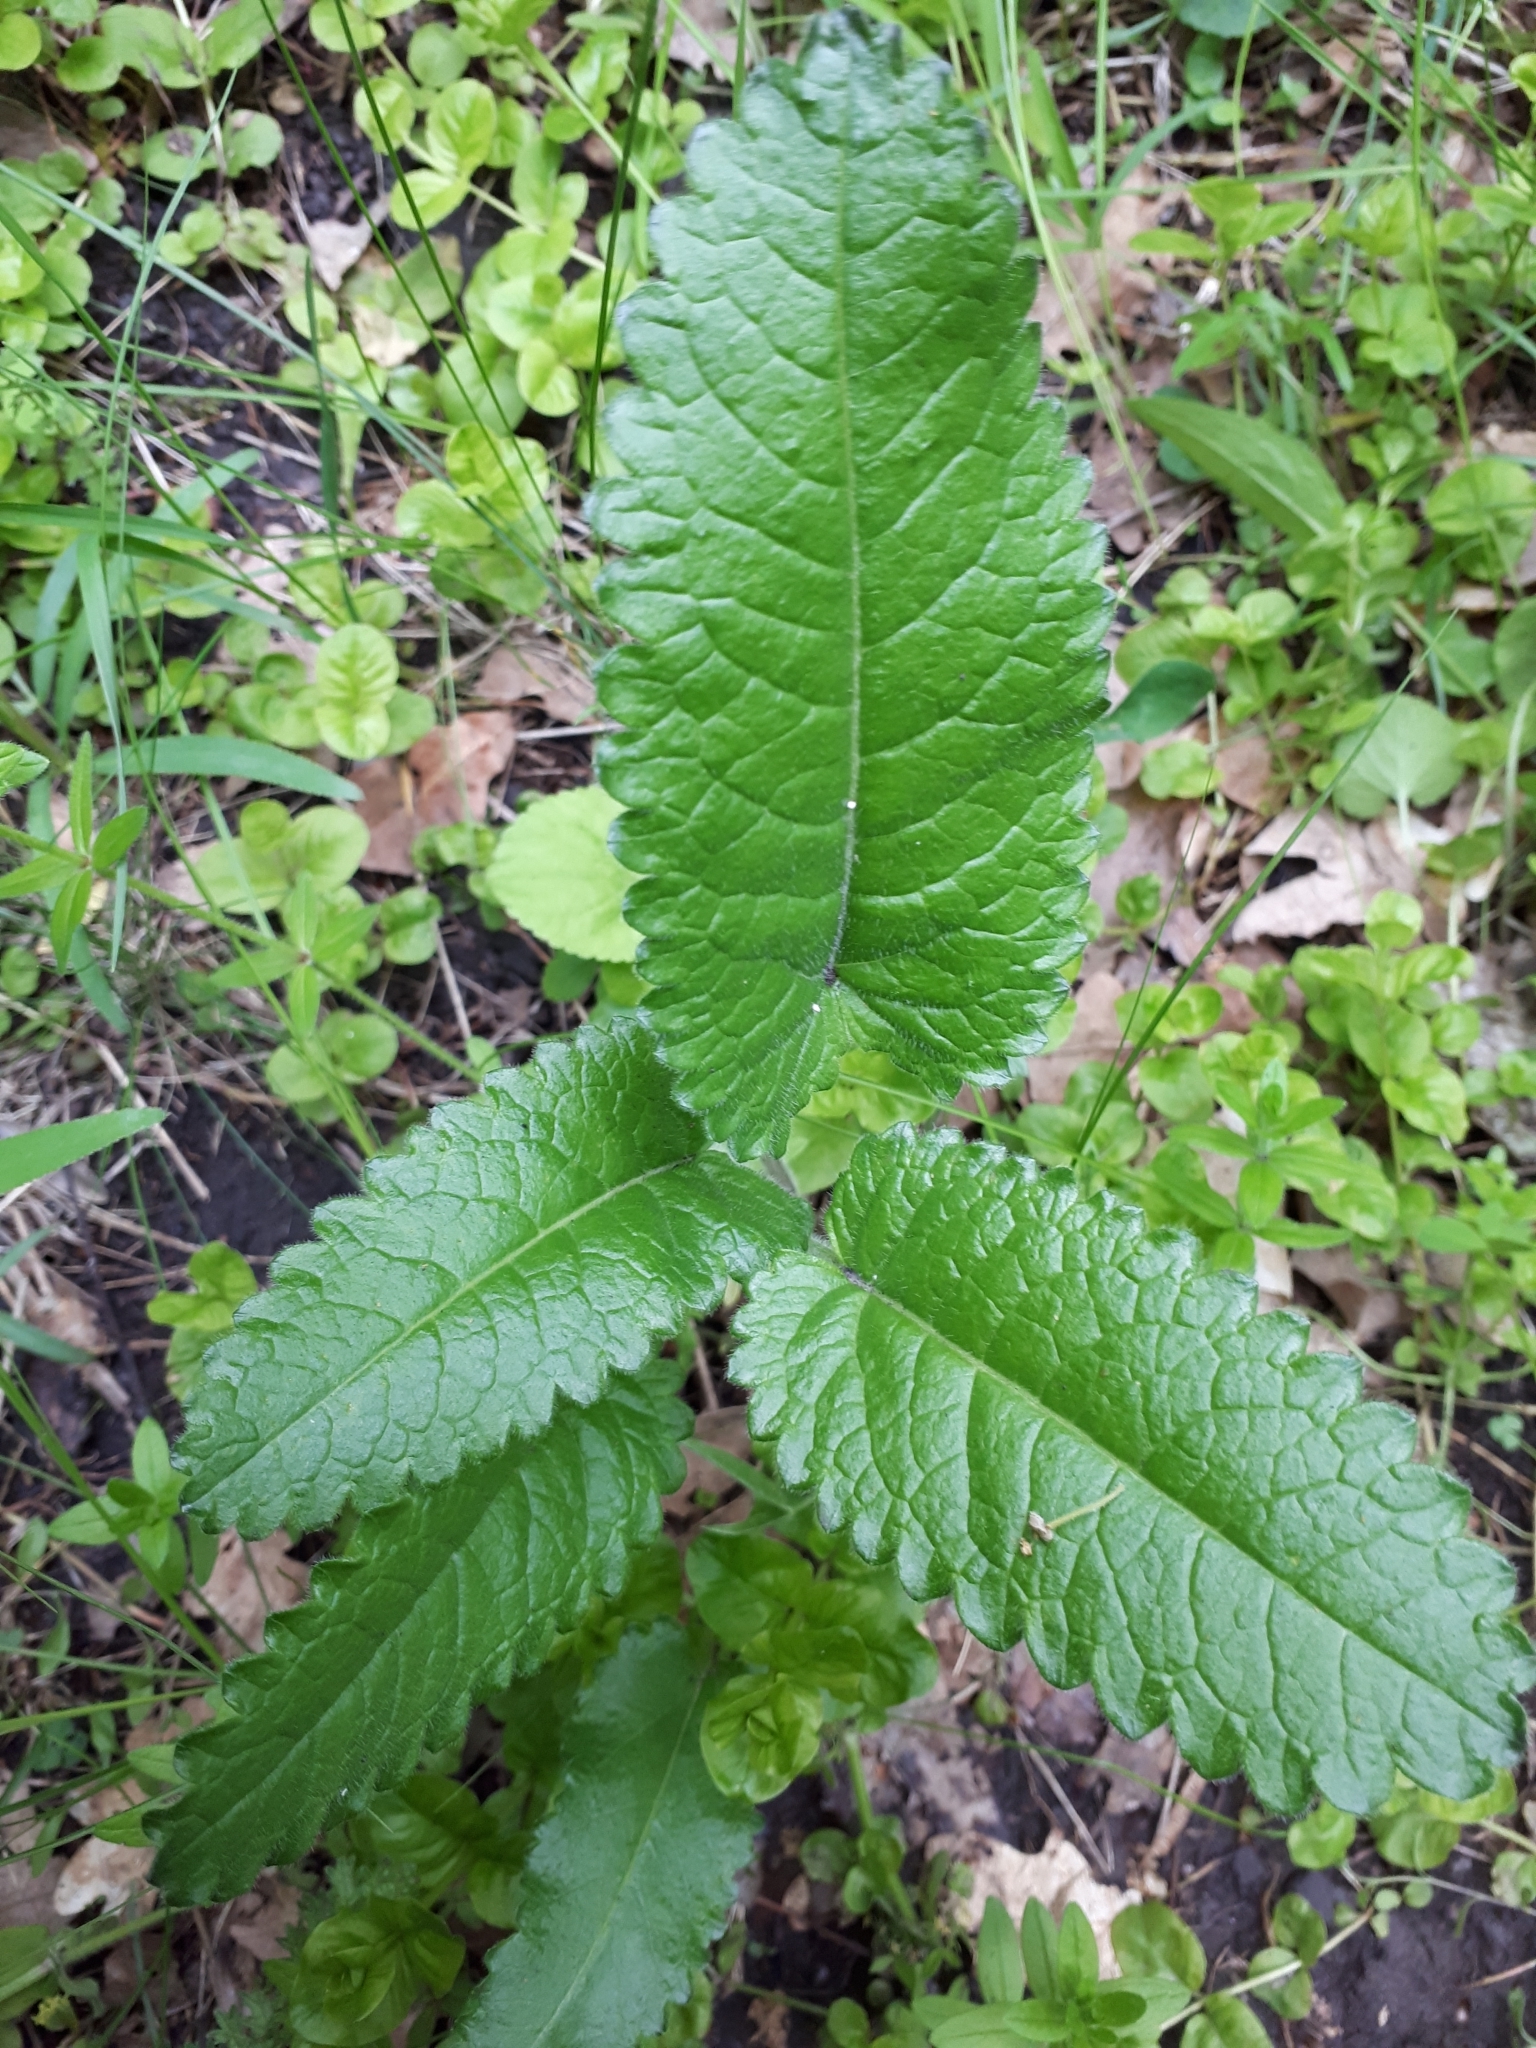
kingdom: Plantae
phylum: Tracheophyta
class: Magnoliopsida
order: Lamiales
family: Lamiaceae
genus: Betonica
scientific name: Betonica officinalis
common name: Bishop's-wort
